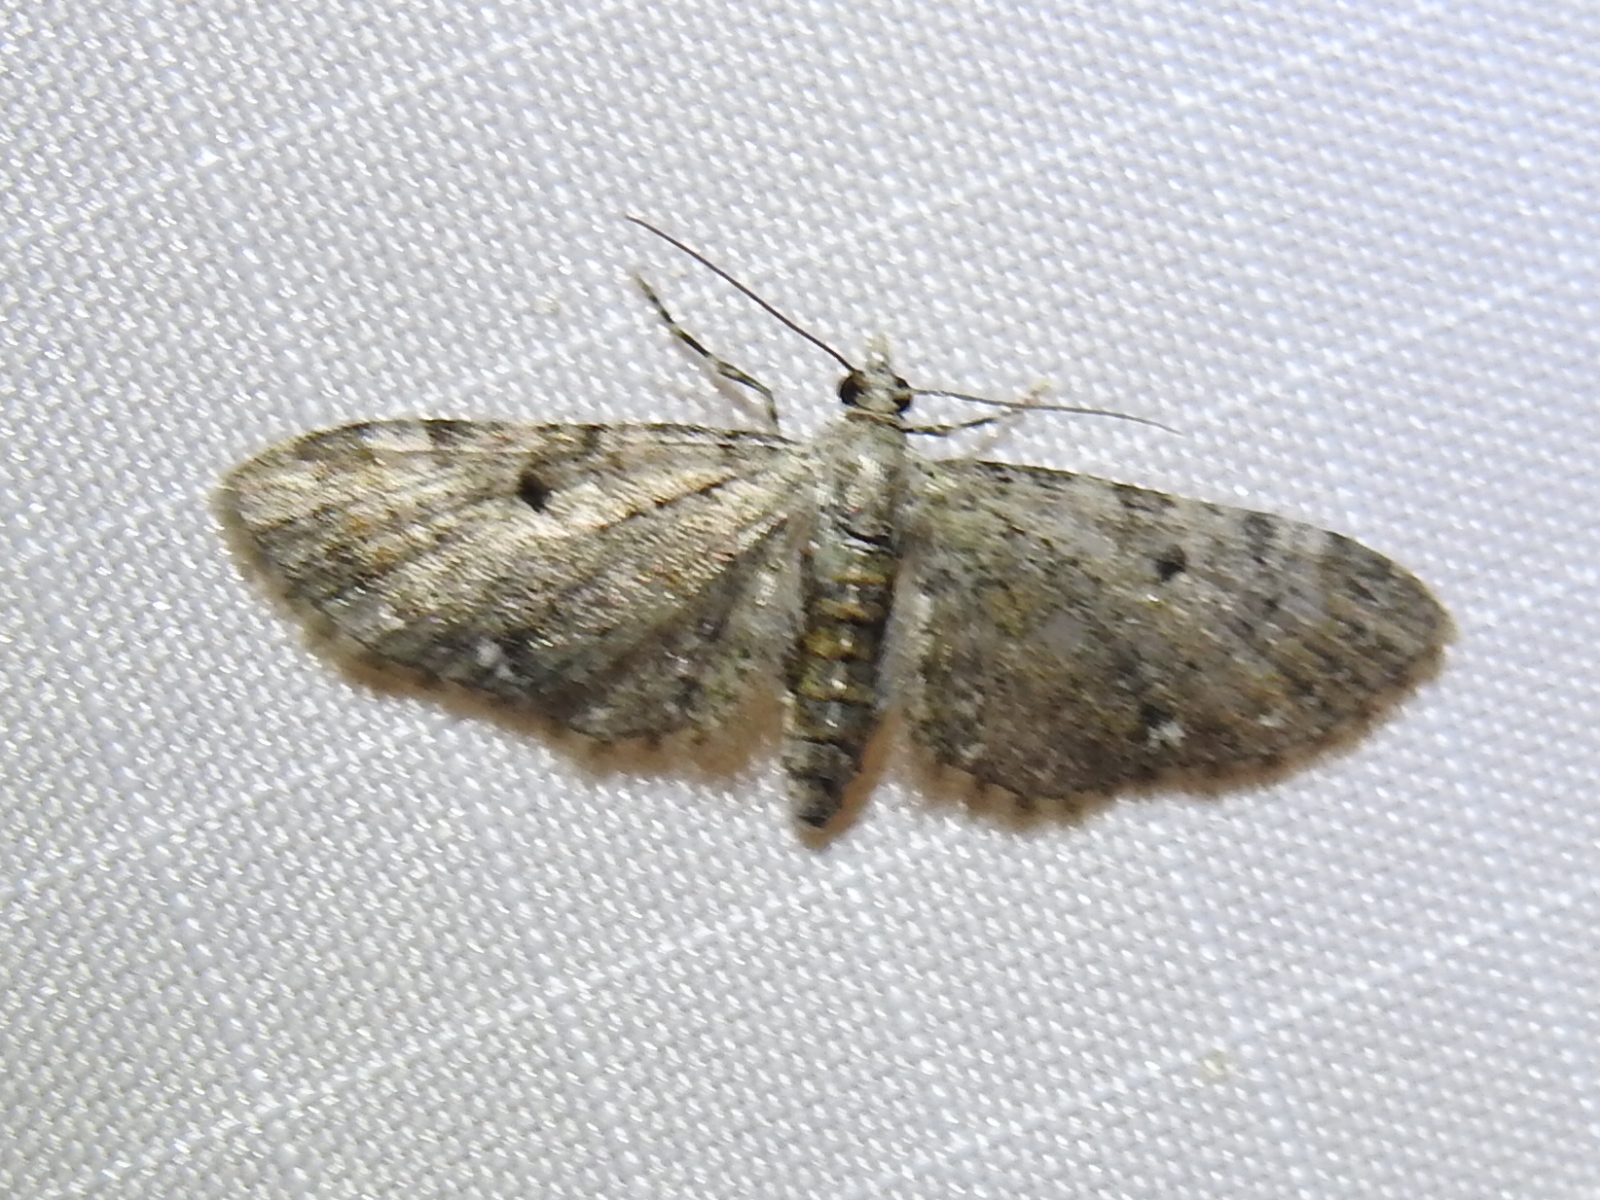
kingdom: Animalia
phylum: Arthropoda
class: Insecta
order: Lepidoptera
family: Geometridae
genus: Eupithecia
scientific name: Eupithecia miserulata
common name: Common eupithecia
